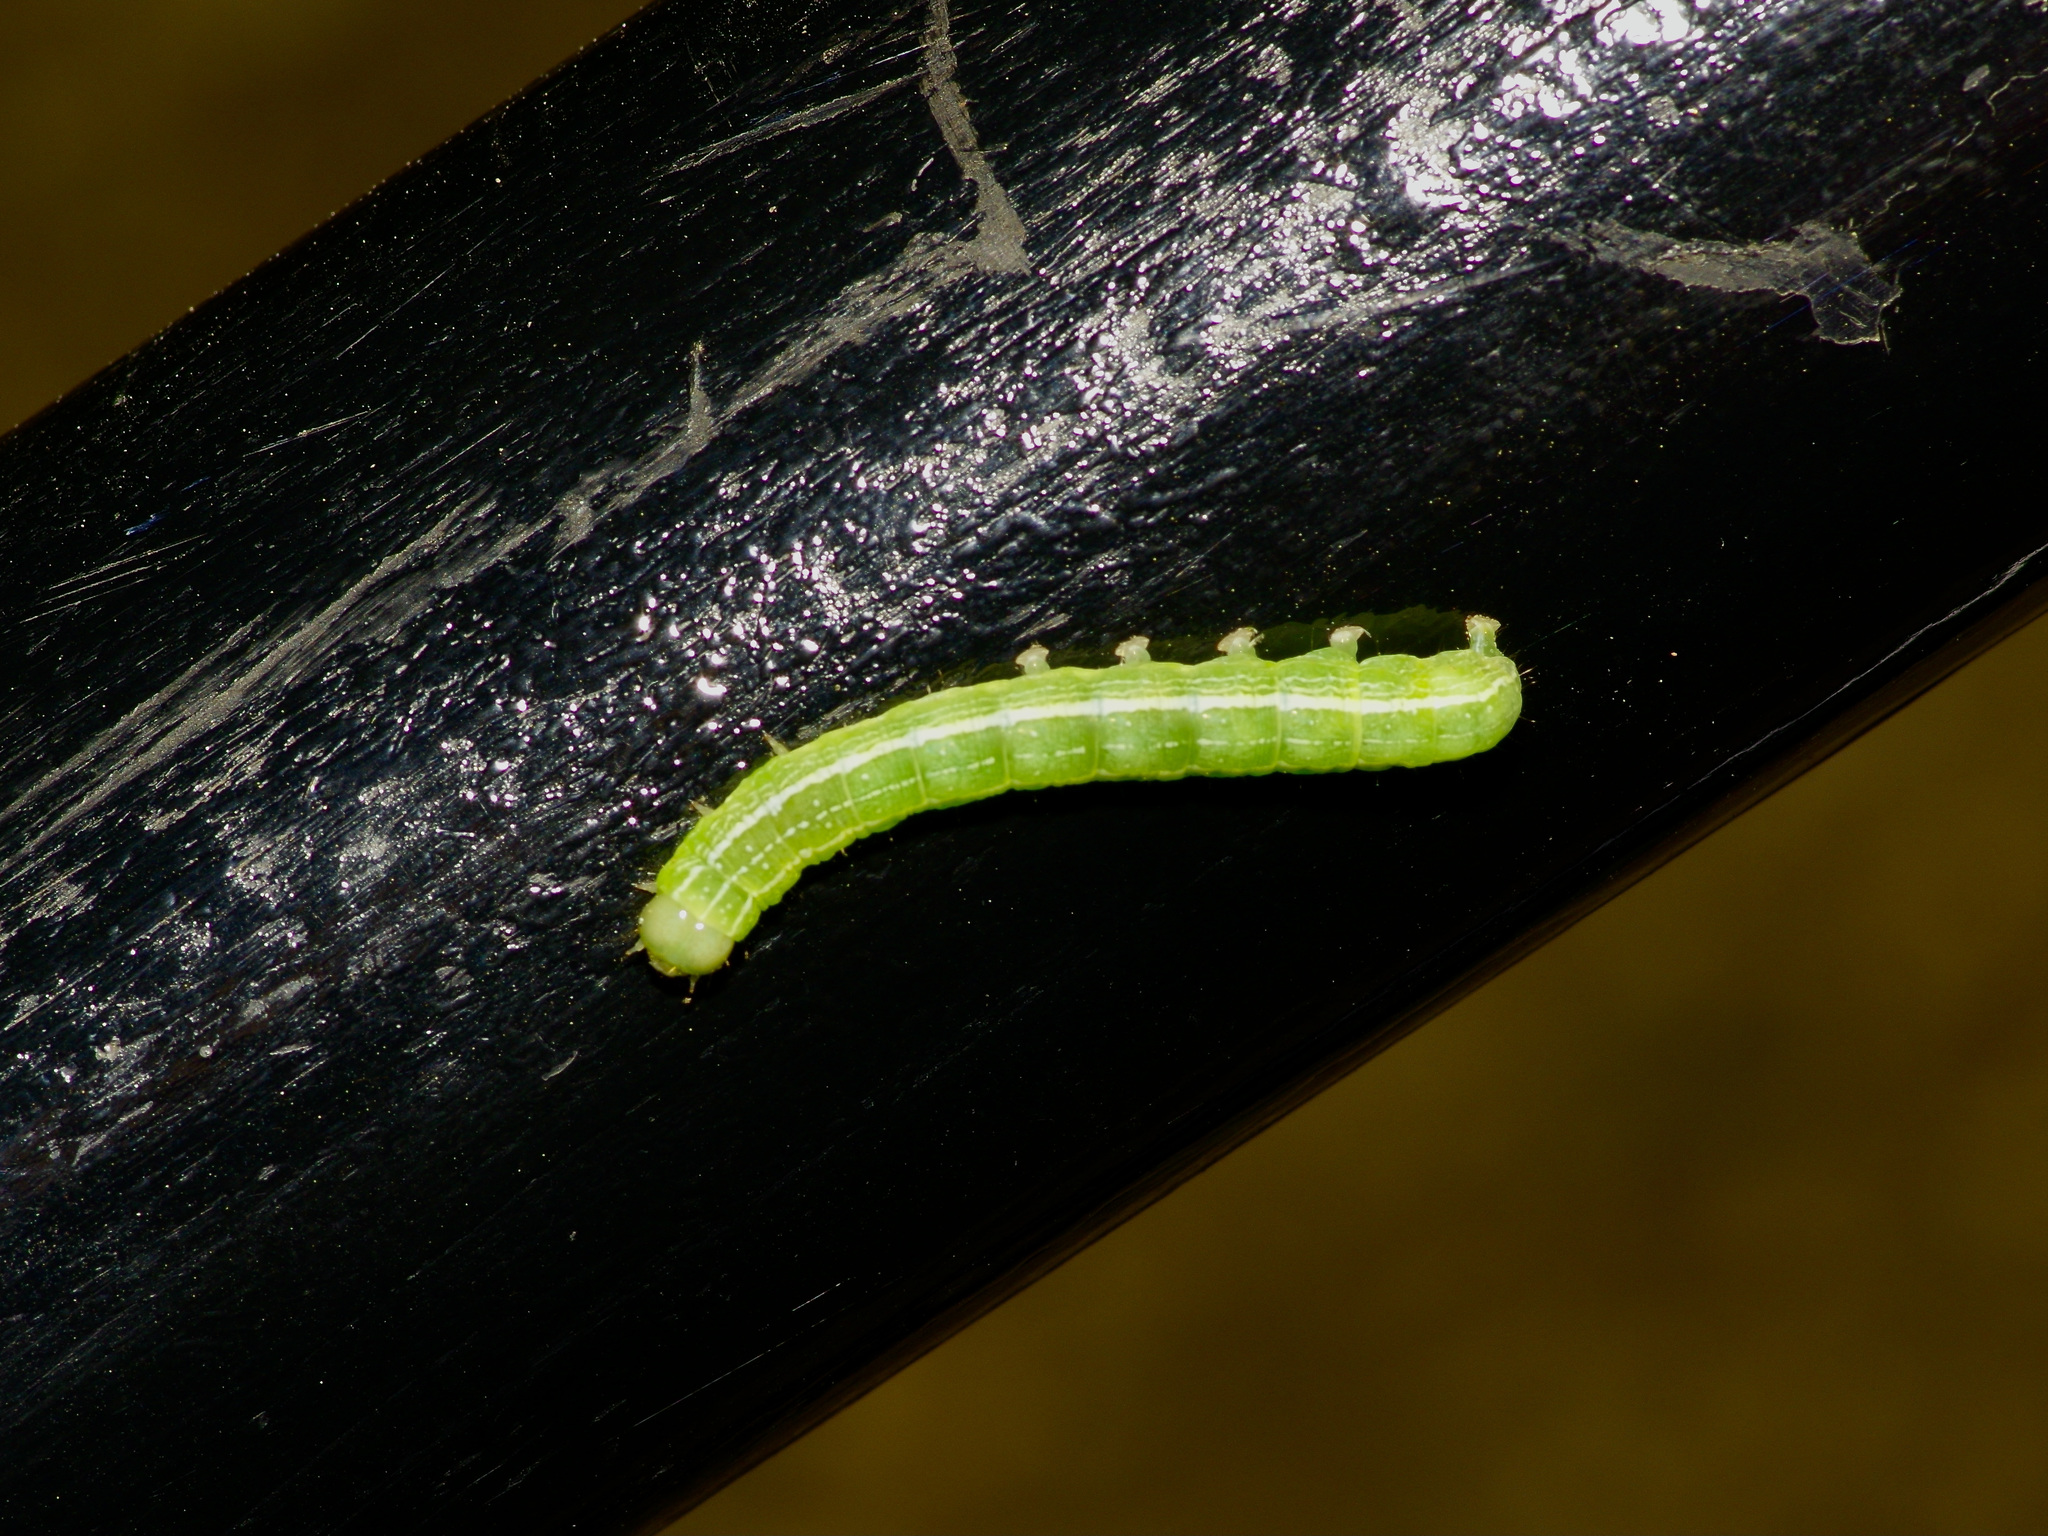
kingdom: Animalia
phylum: Arthropoda
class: Insecta
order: Lepidoptera
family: Noctuidae
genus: Kocakina
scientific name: Kocakina fidelis
